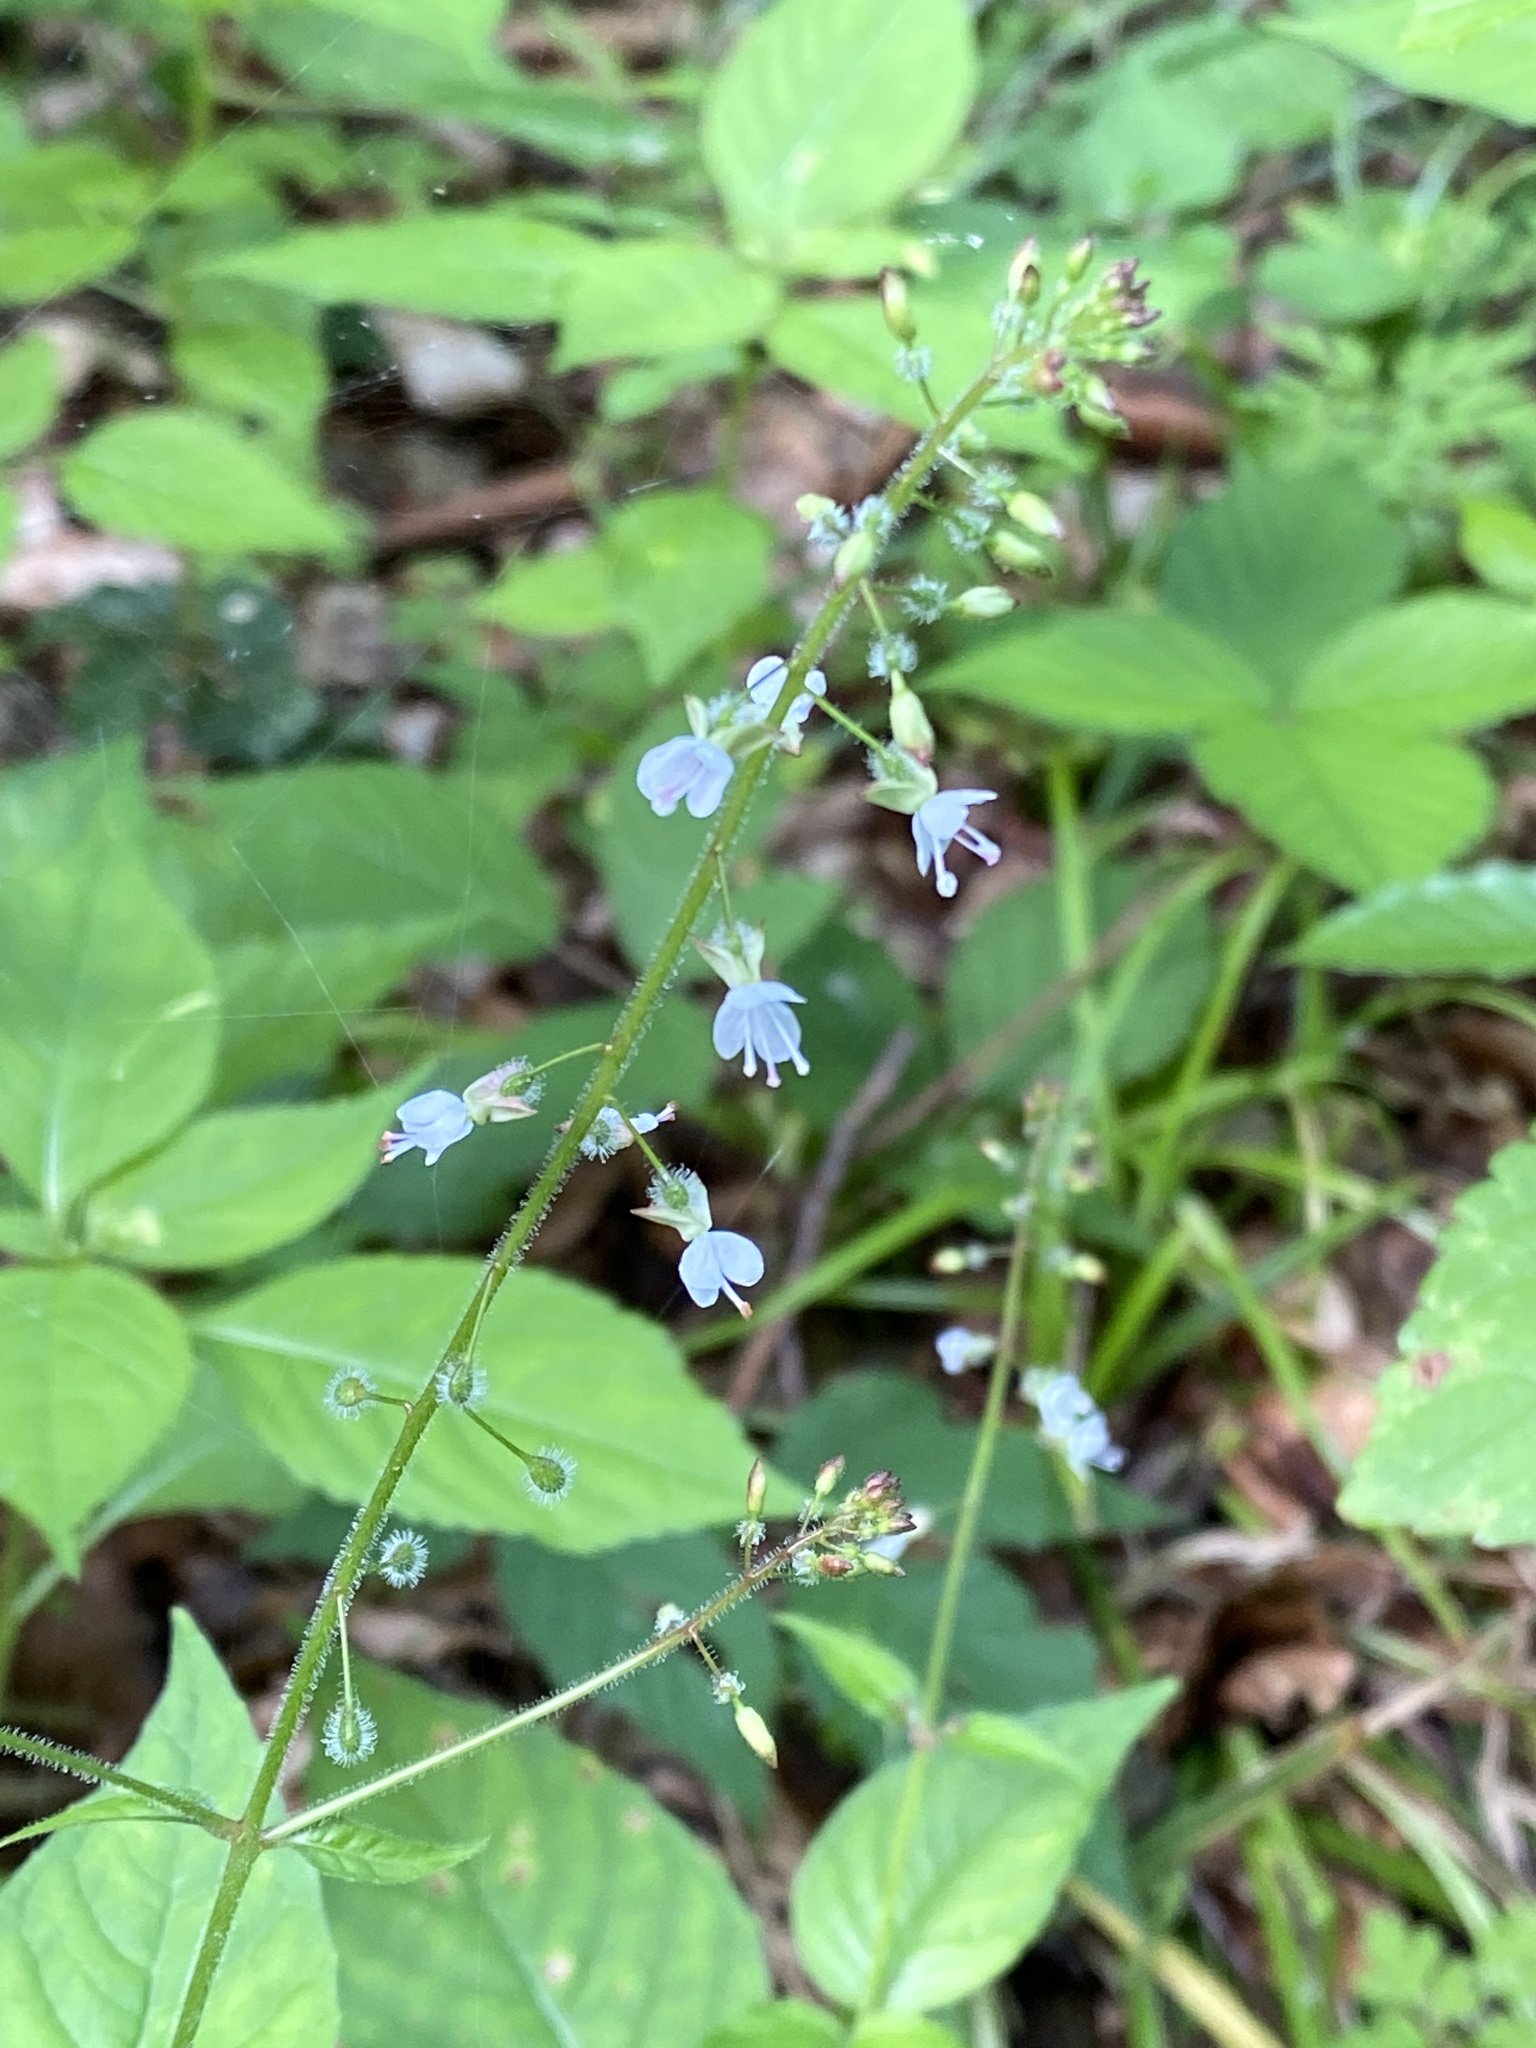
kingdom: Plantae
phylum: Tracheophyta
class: Magnoliopsida
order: Myrtales
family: Onagraceae
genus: Circaea
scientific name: Circaea lutetiana
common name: Enchanter's-nightshade
